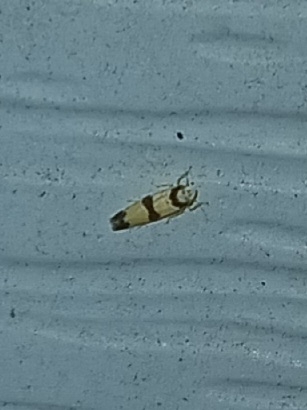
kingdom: Animalia
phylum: Arthropoda
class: Insecta
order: Hemiptera
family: Cicadellidae
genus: Erythroneura
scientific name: Erythroneura calycula
